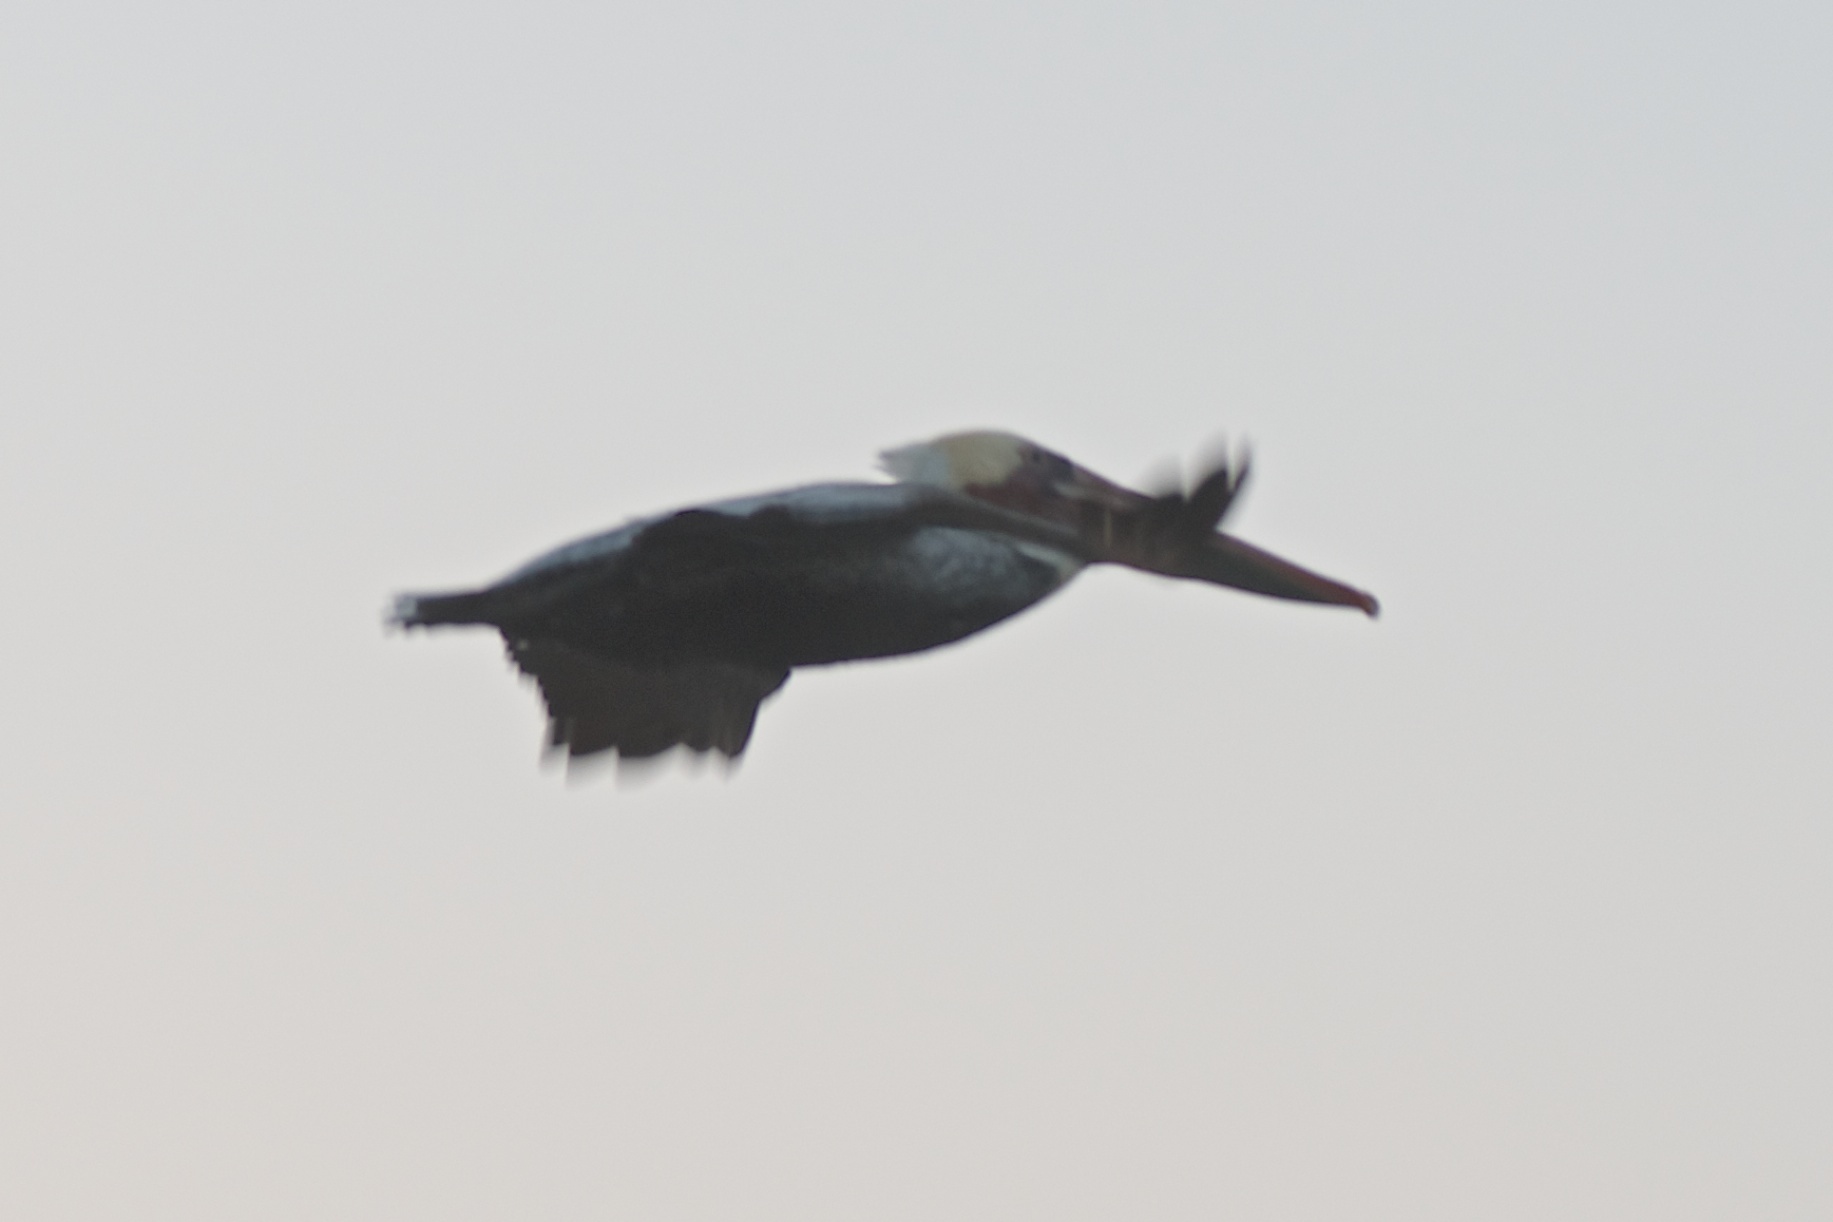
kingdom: Animalia
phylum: Chordata
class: Aves
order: Pelecaniformes
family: Pelecanidae
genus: Pelecanus
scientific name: Pelecanus occidentalis
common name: Brown pelican
